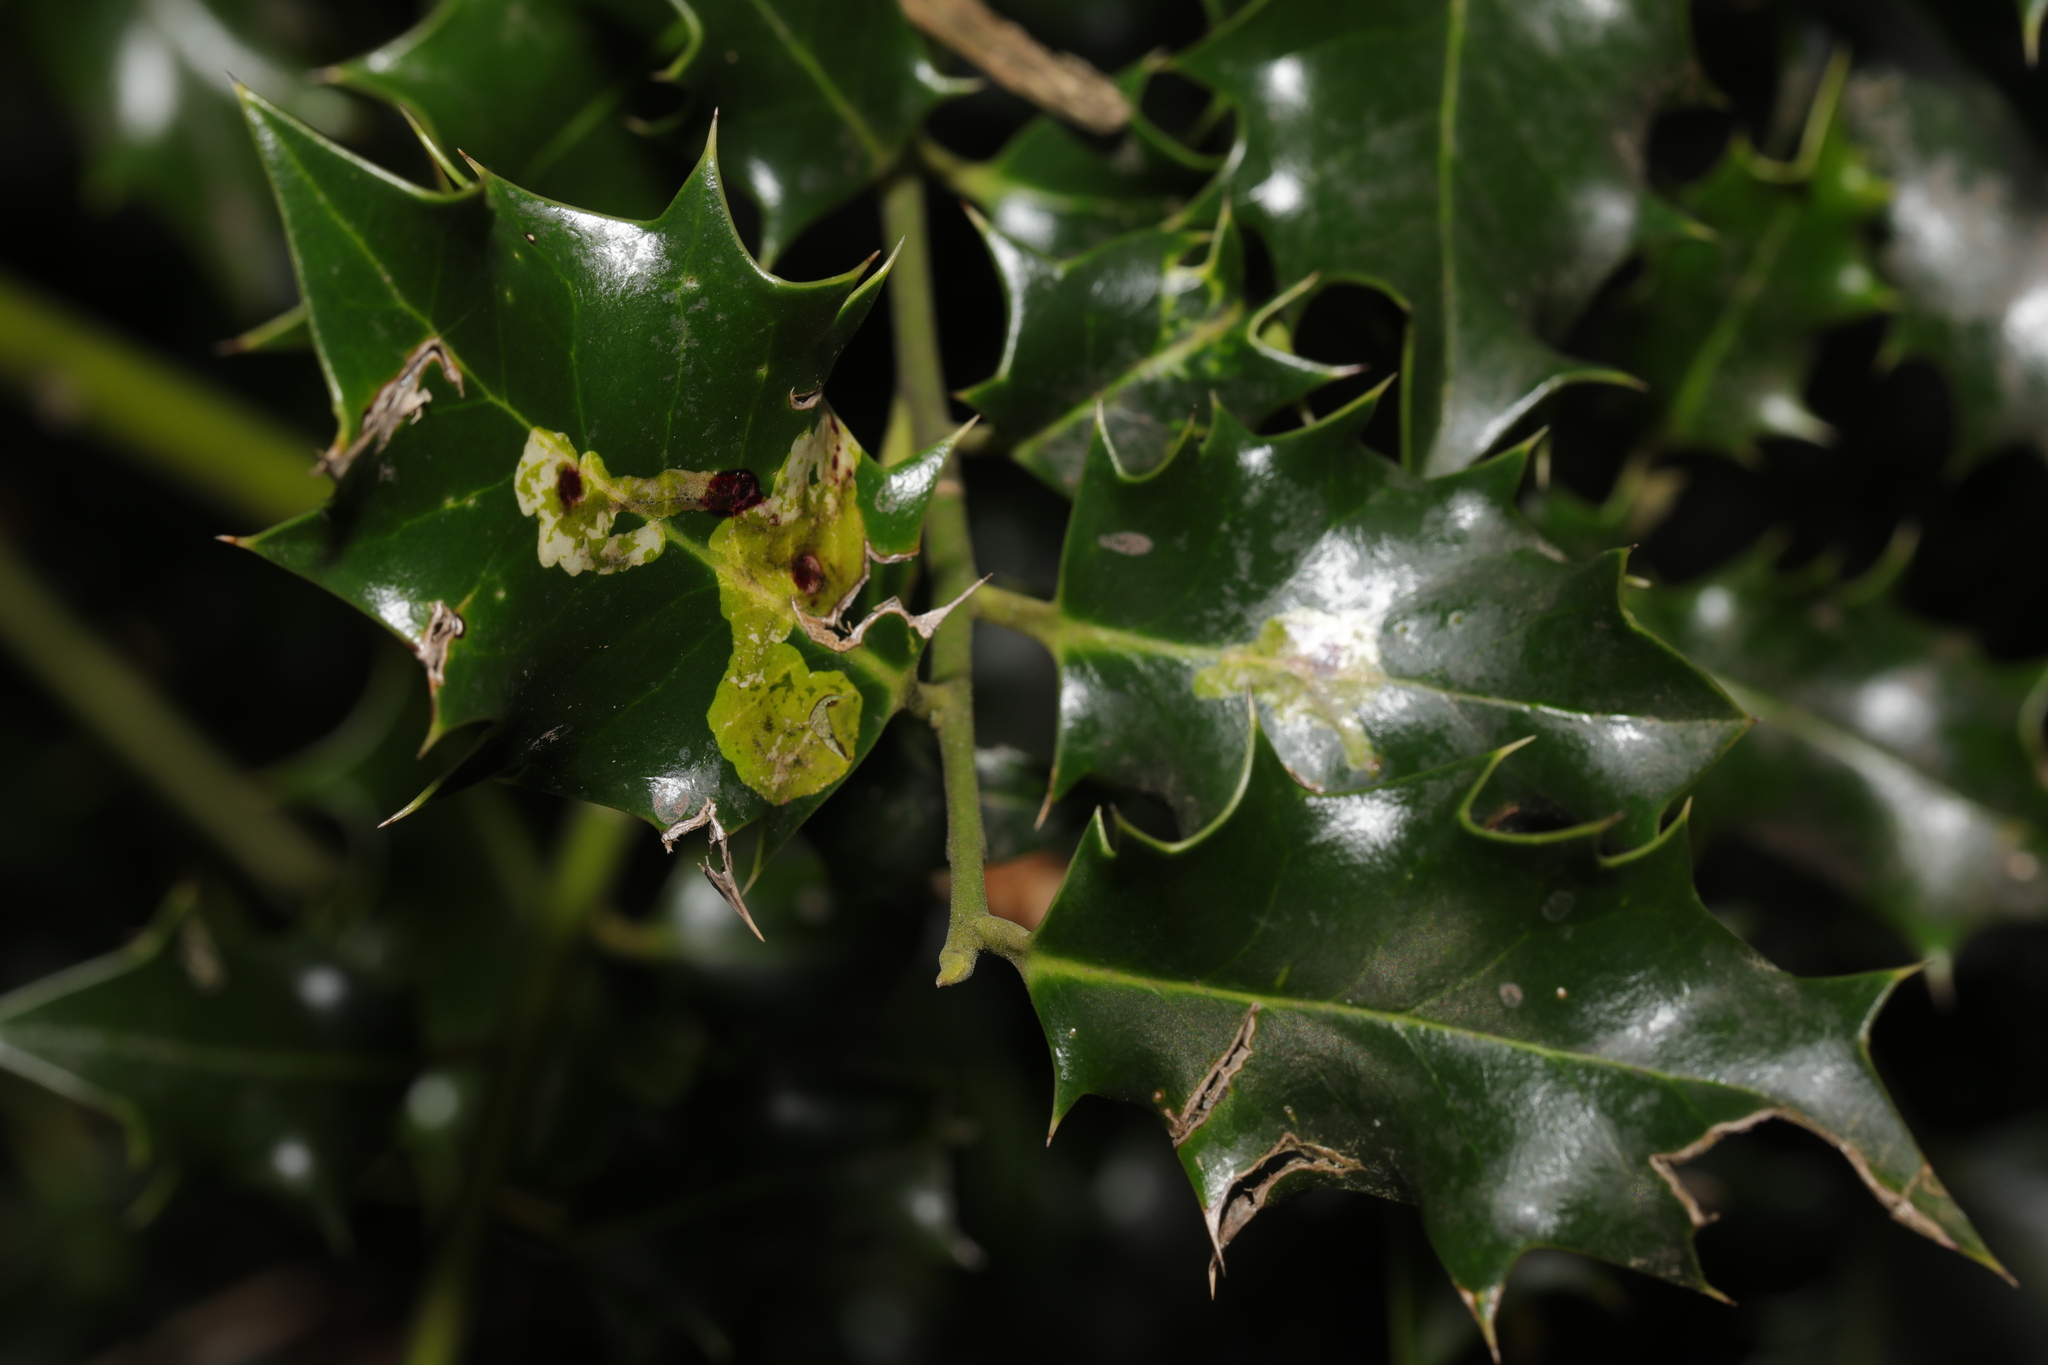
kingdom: Animalia
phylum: Arthropoda
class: Insecta
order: Diptera
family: Agromyzidae
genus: Phytomyza
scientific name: Phytomyza ilicis
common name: Holly leafminer
